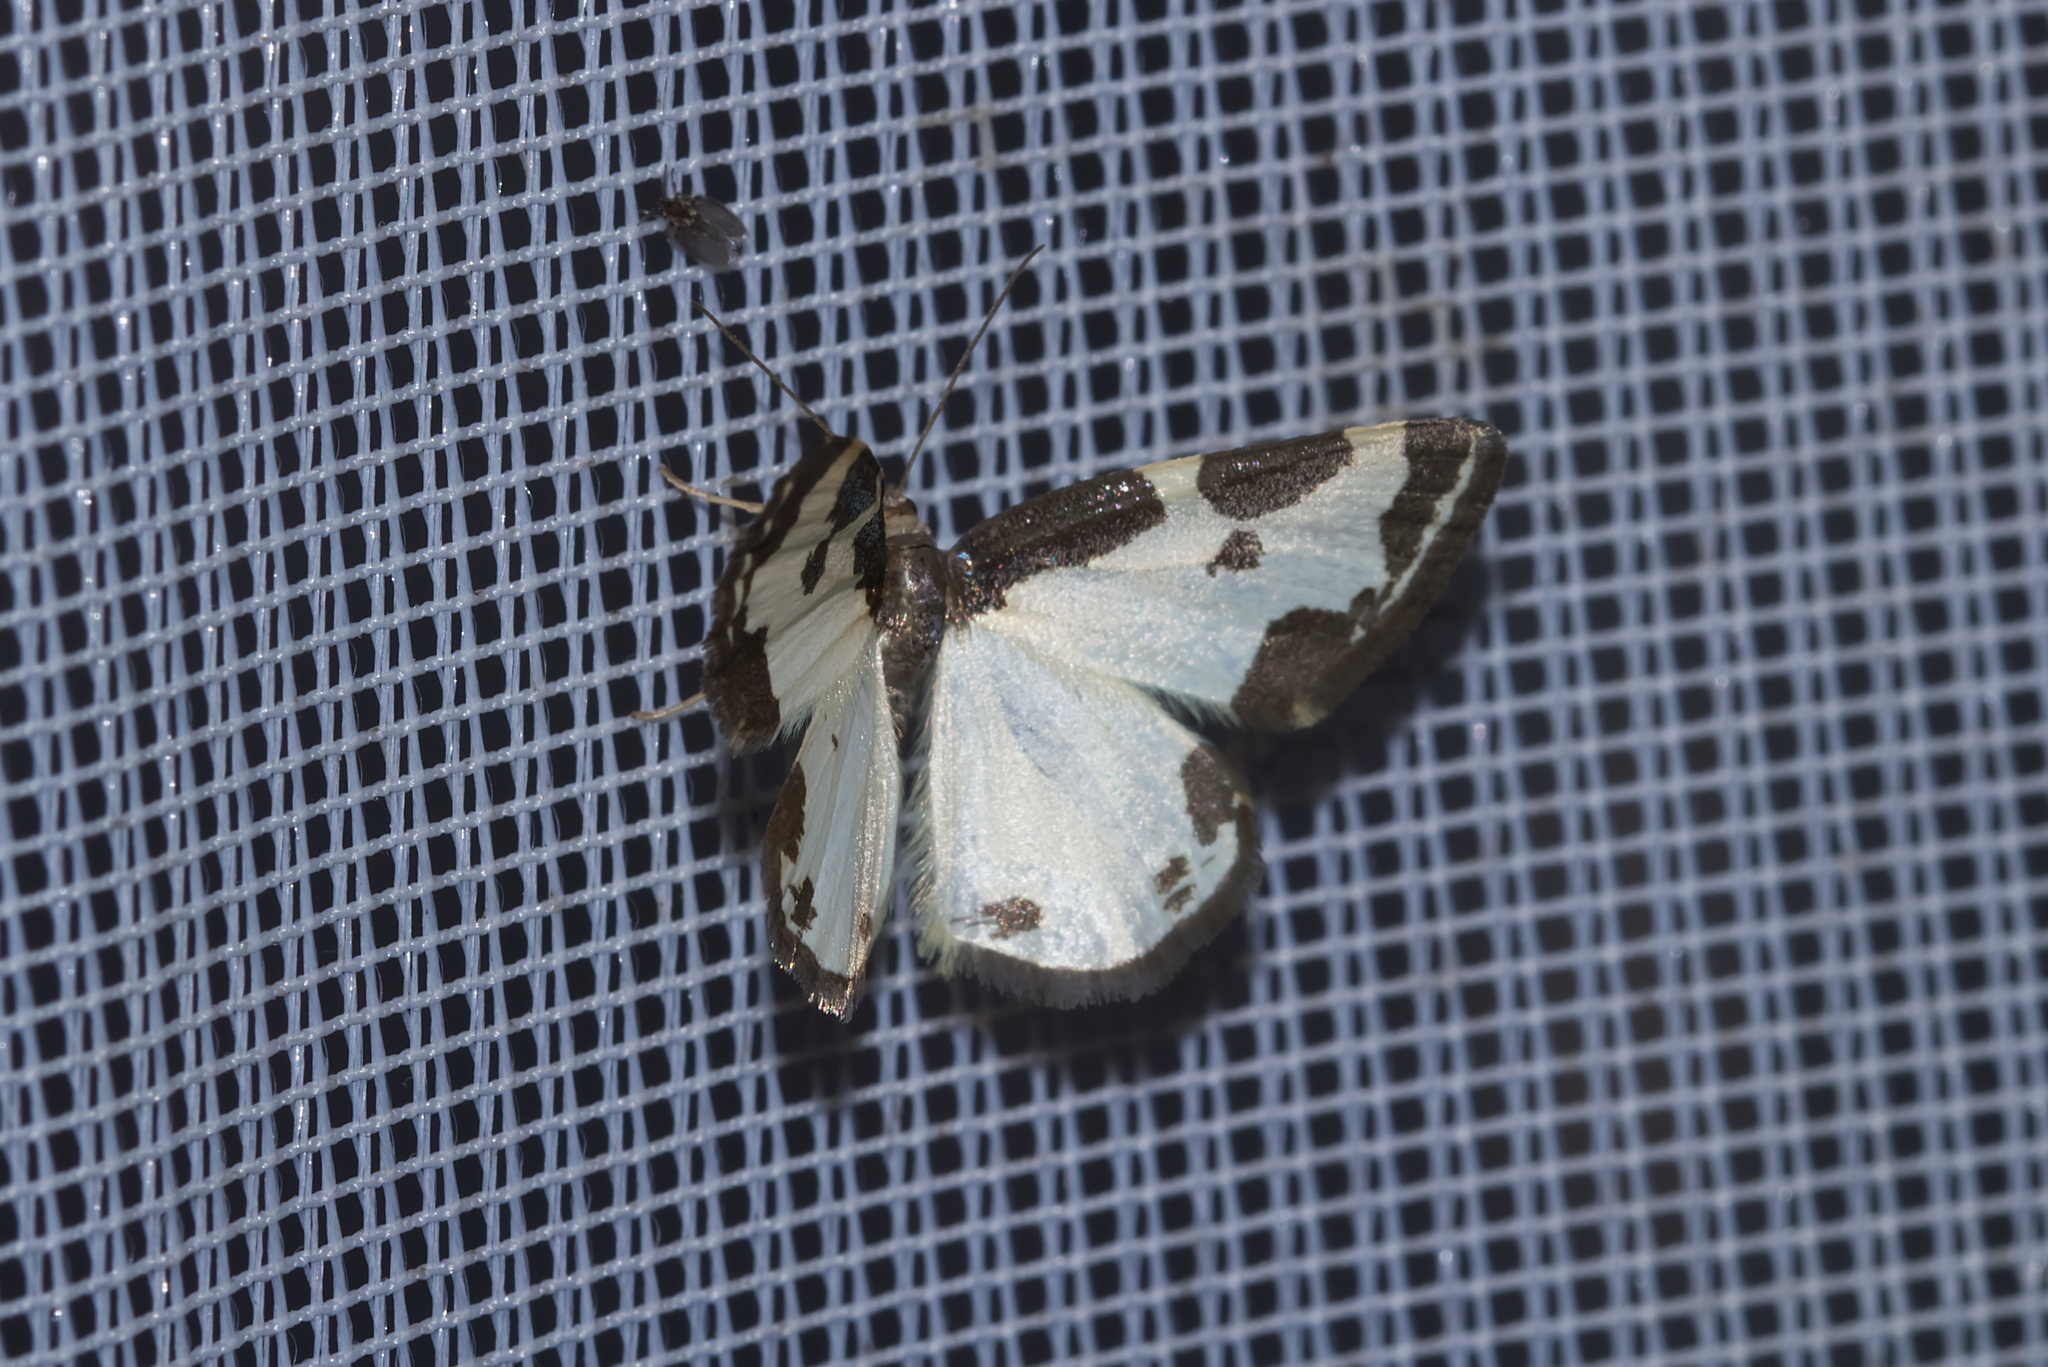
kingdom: Animalia
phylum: Arthropoda
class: Insecta
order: Lepidoptera
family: Geometridae
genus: Lomaspilis
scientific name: Lomaspilis marginata
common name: Clouded border
